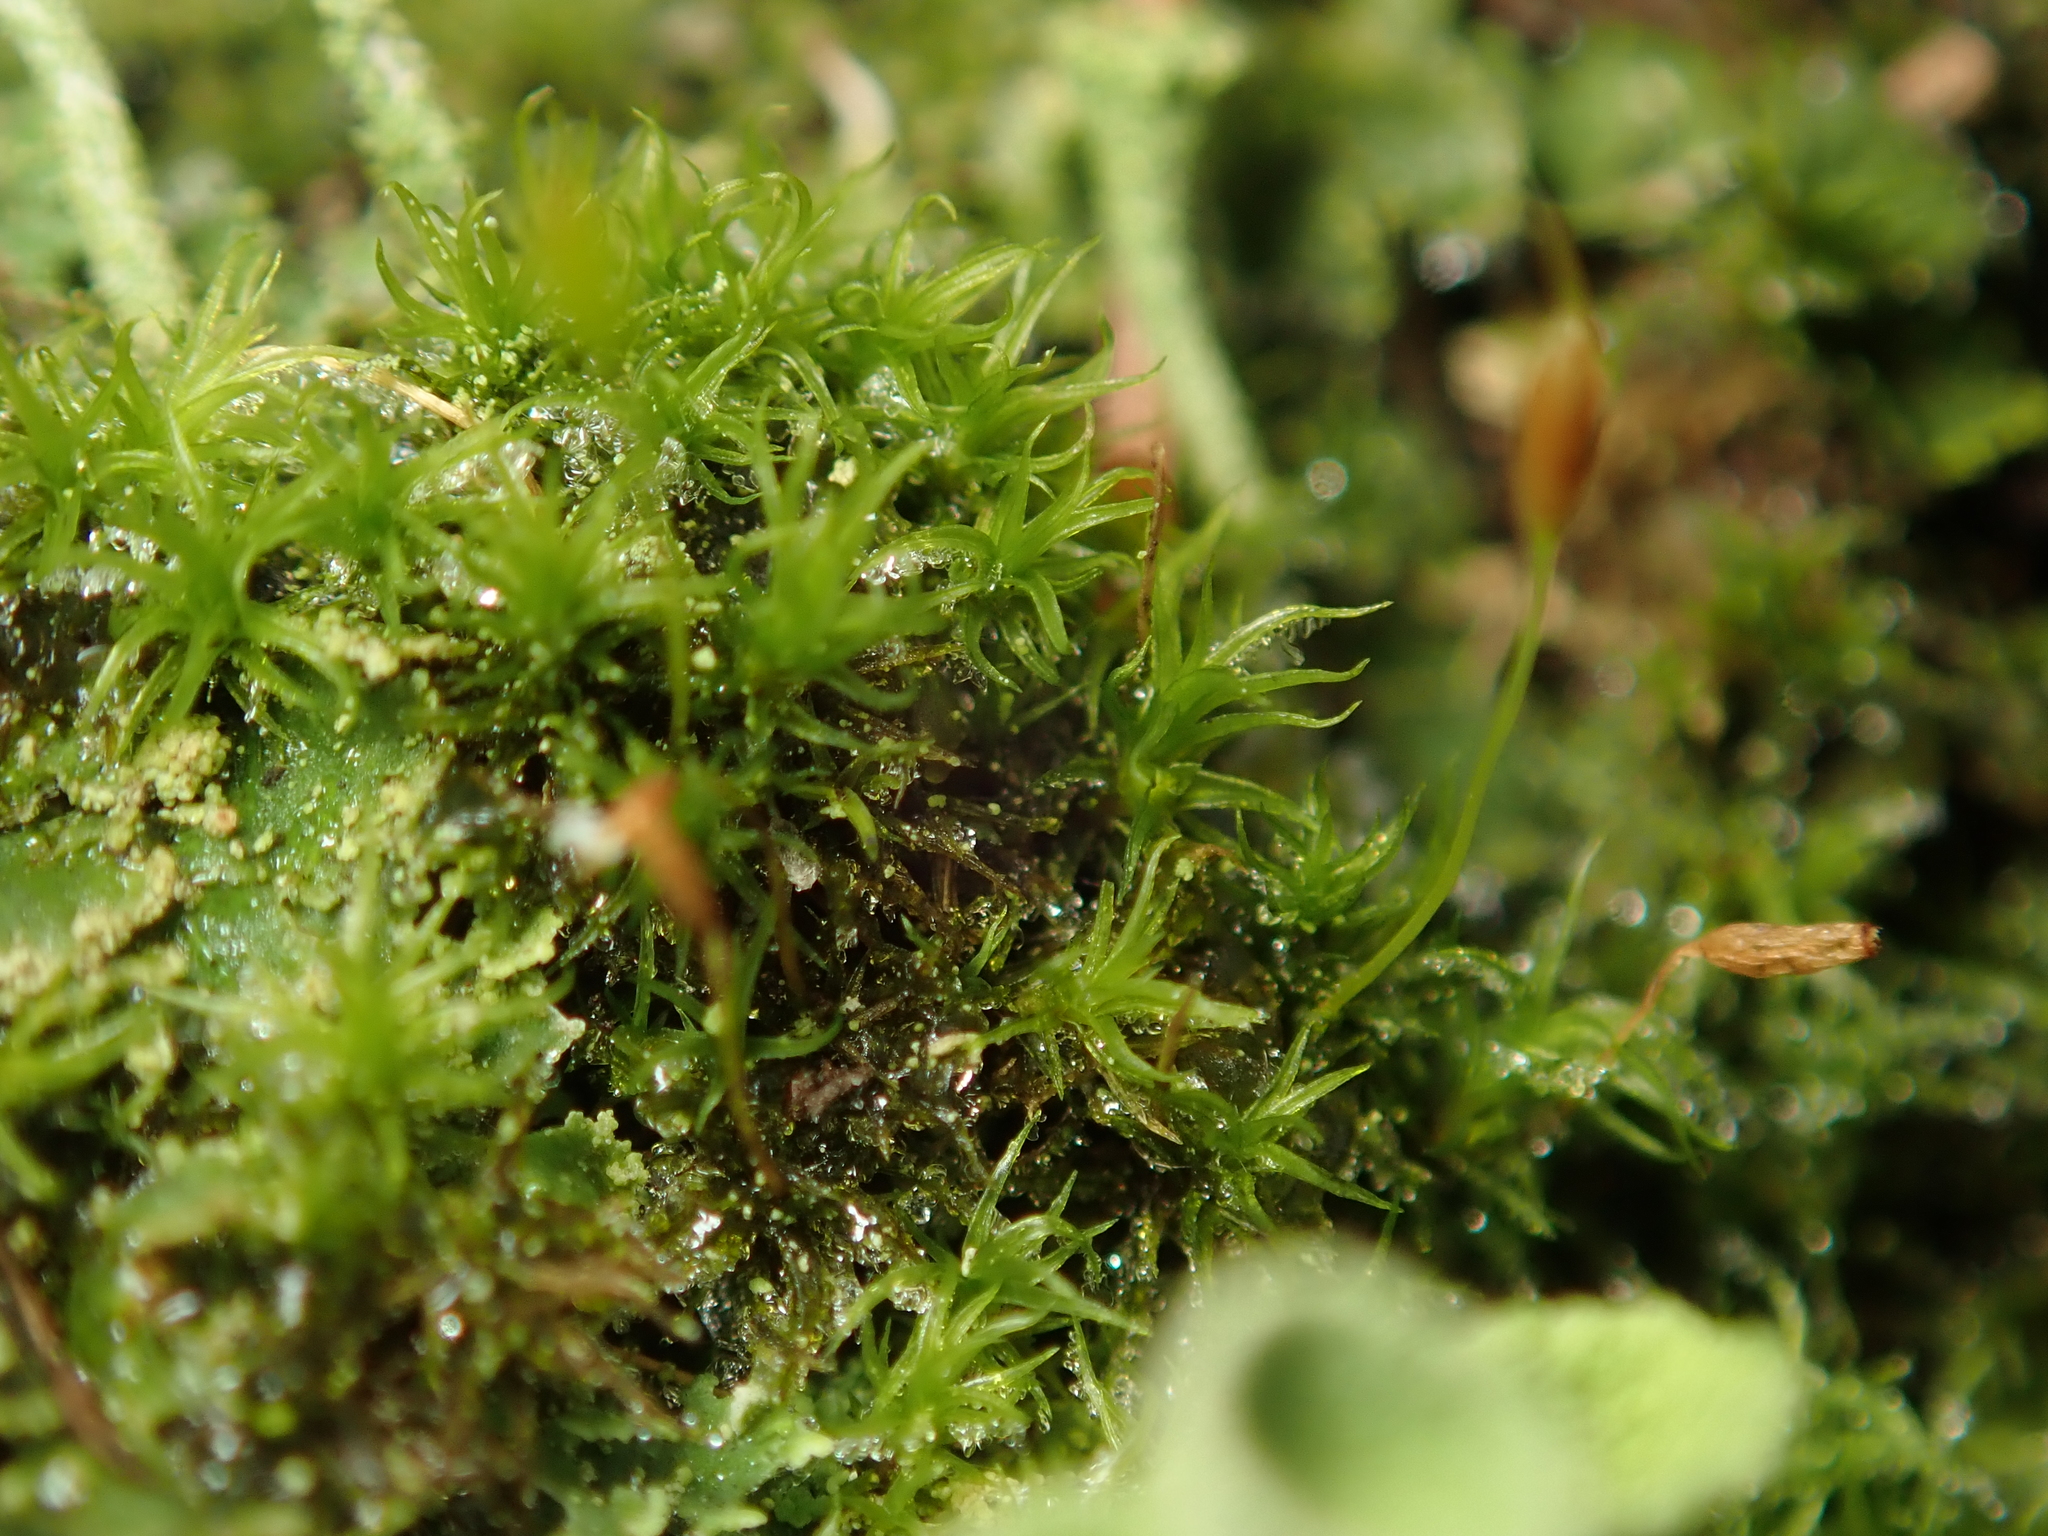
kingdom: Plantae
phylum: Bryophyta
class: Bryopsida
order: Dicranales
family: Rhabdoweisiaceae
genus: Dicranoweisia
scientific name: Dicranoweisia cirrata
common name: Common pincushion
